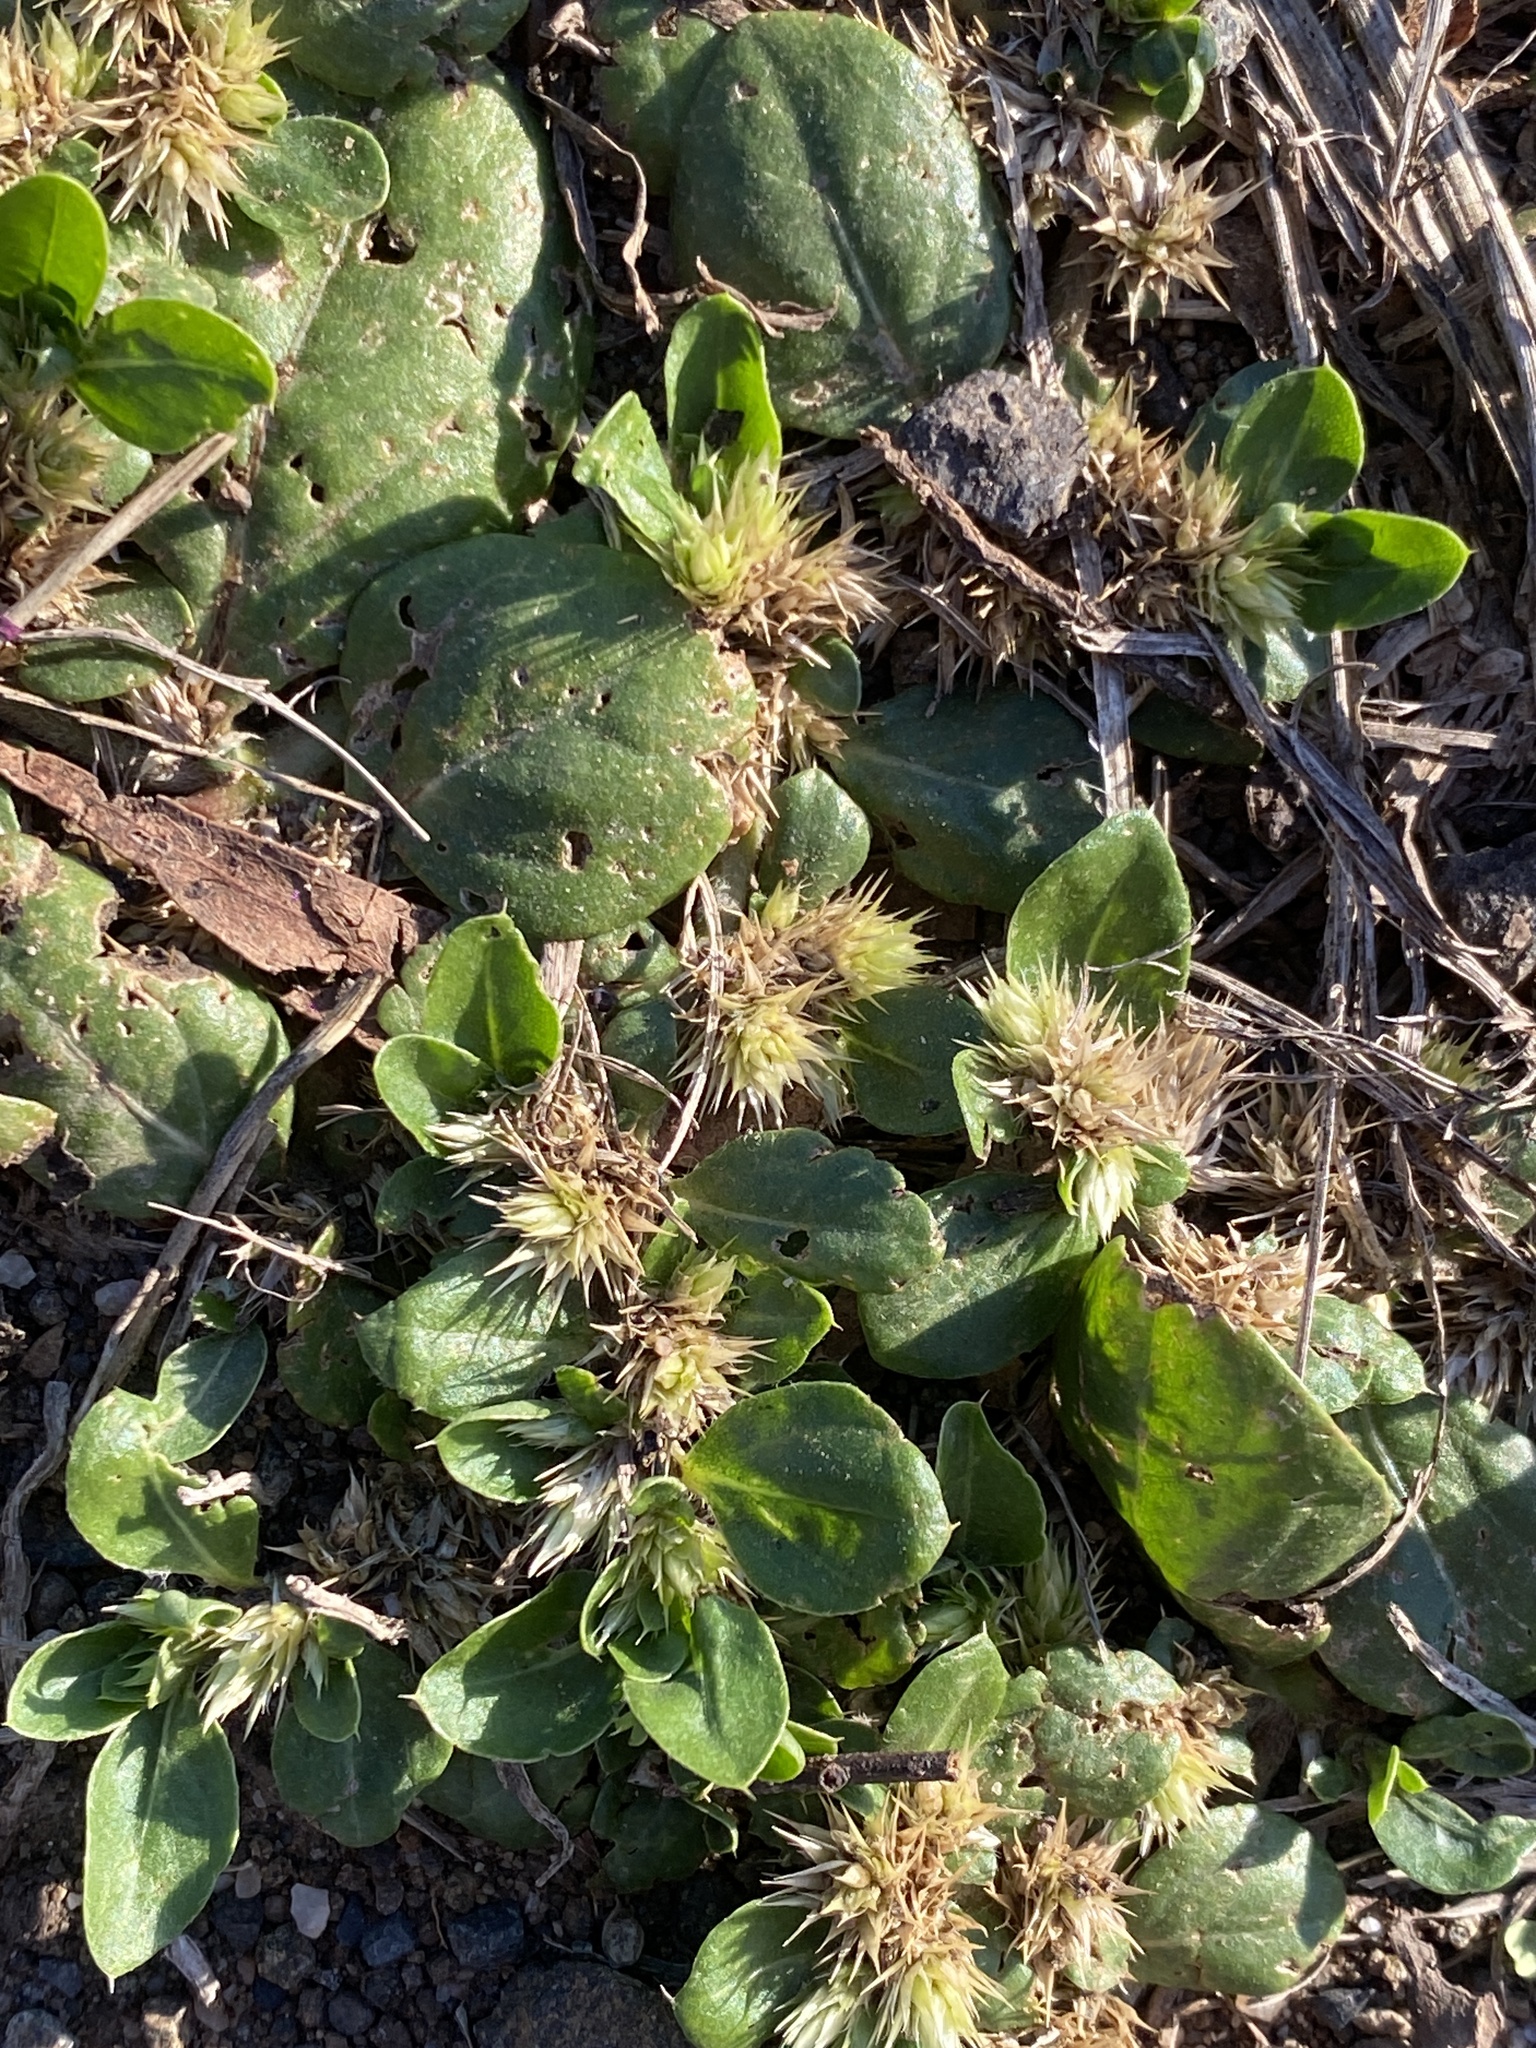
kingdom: Plantae
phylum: Tracheophyta
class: Magnoliopsida
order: Caryophyllales
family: Amaranthaceae
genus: Alternanthera
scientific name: Alternanthera pungens
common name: Khakiweed
